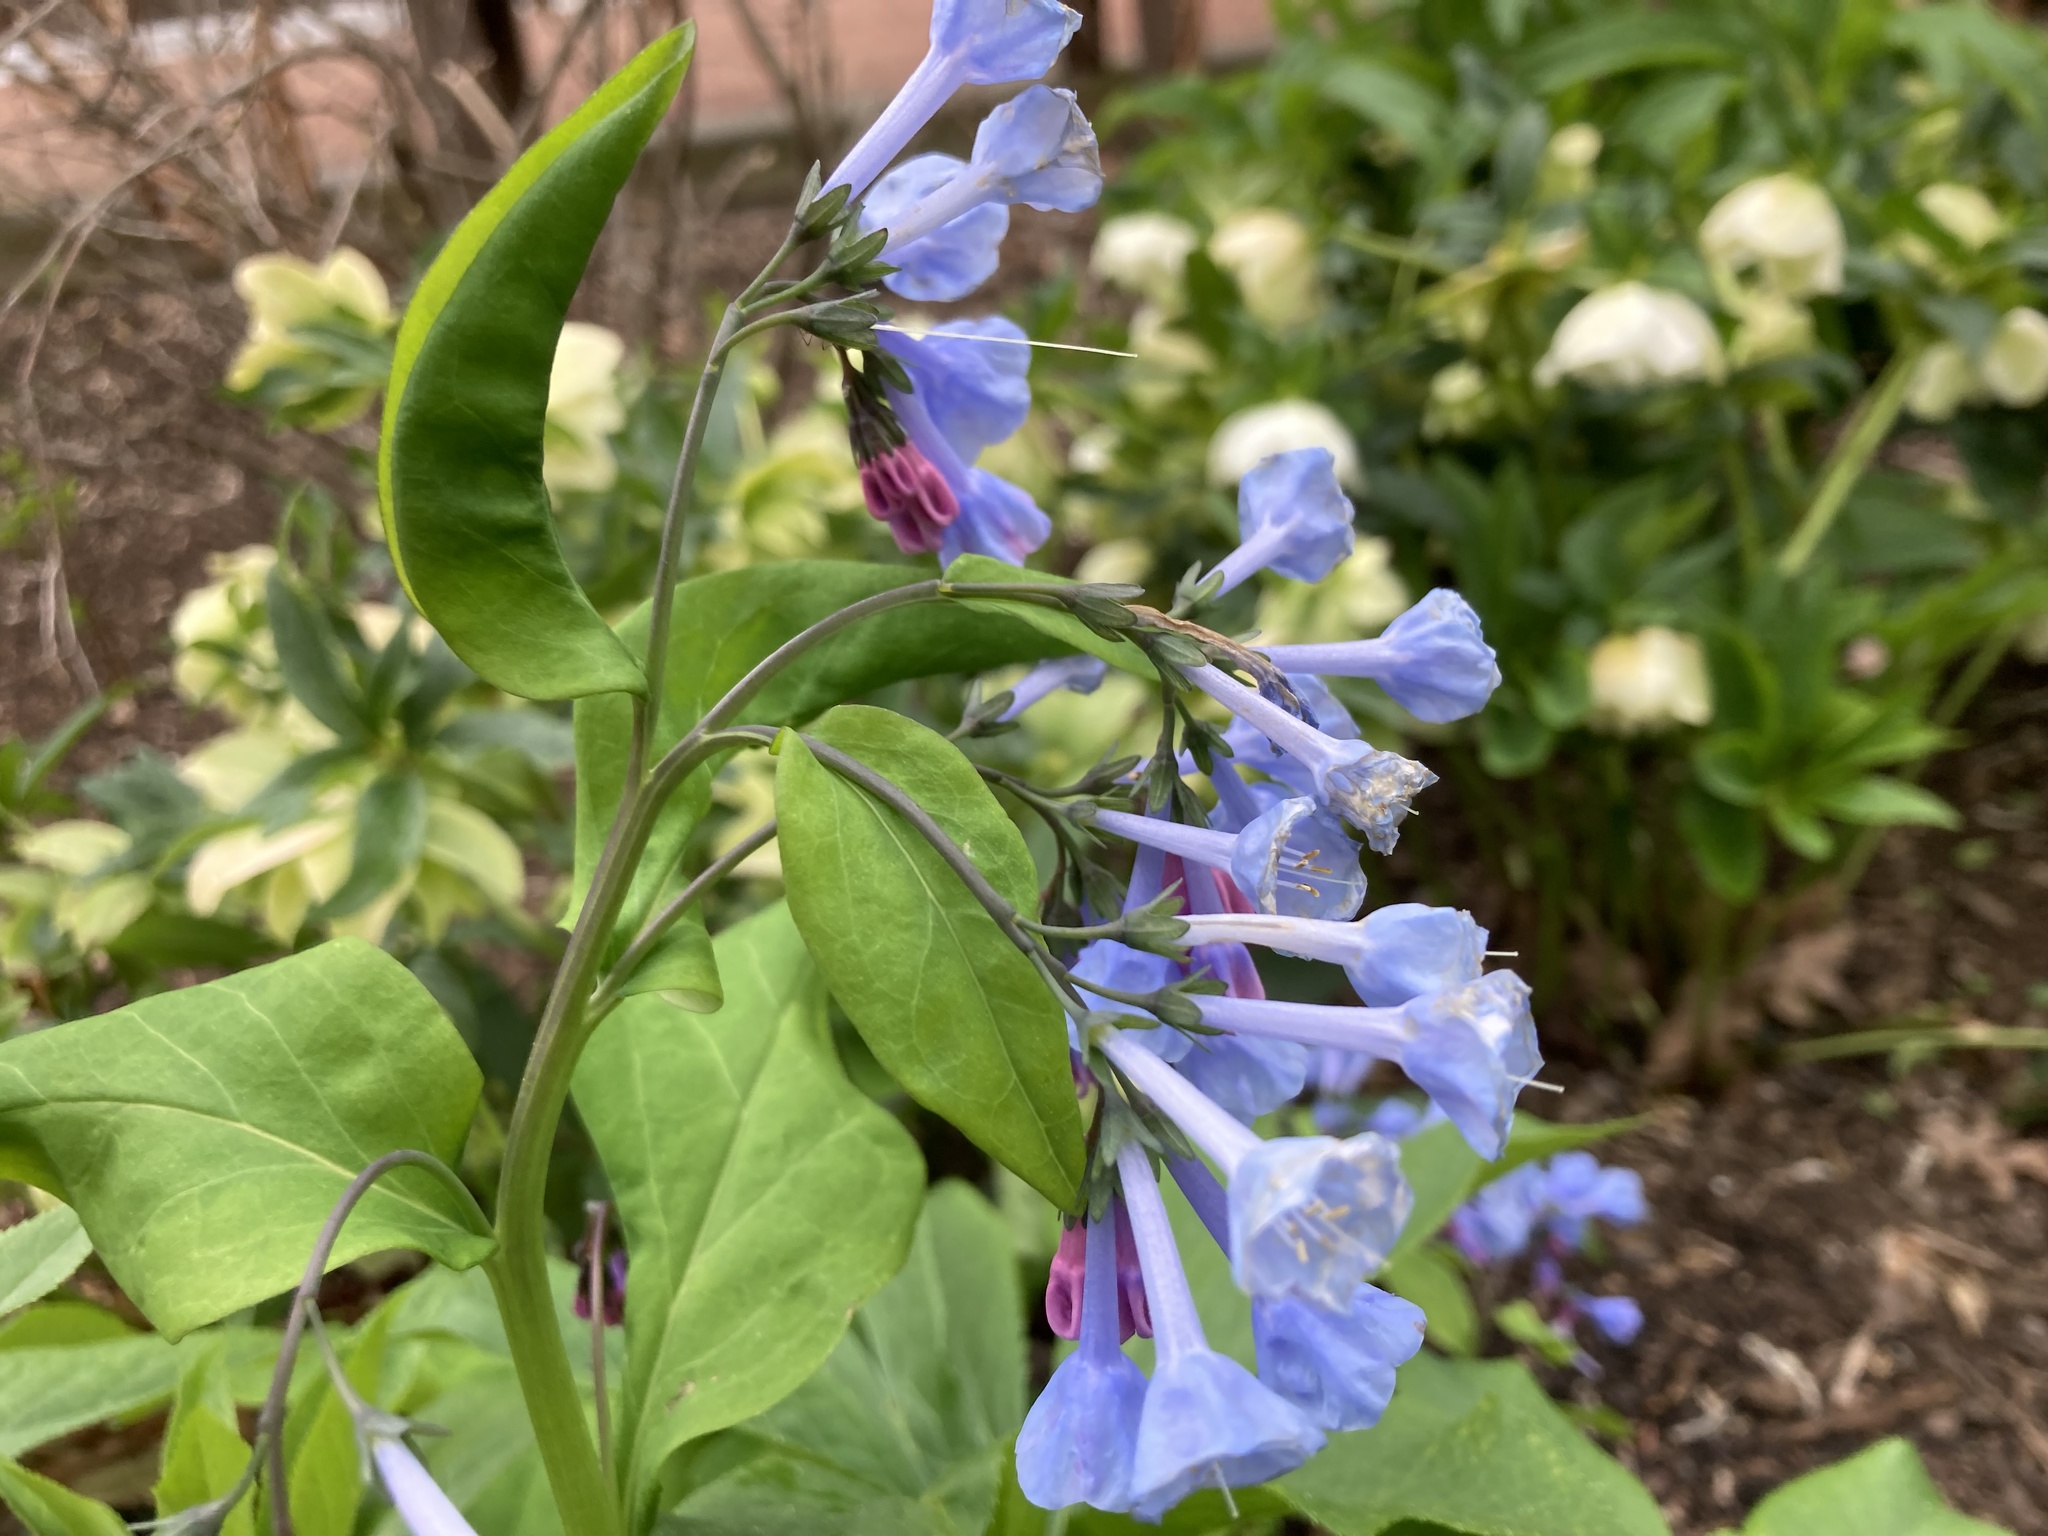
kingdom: Plantae
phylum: Tracheophyta
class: Magnoliopsida
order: Boraginales
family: Boraginaceae
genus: Mertensia
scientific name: Mertensia virginica
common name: Virginia bluebells
